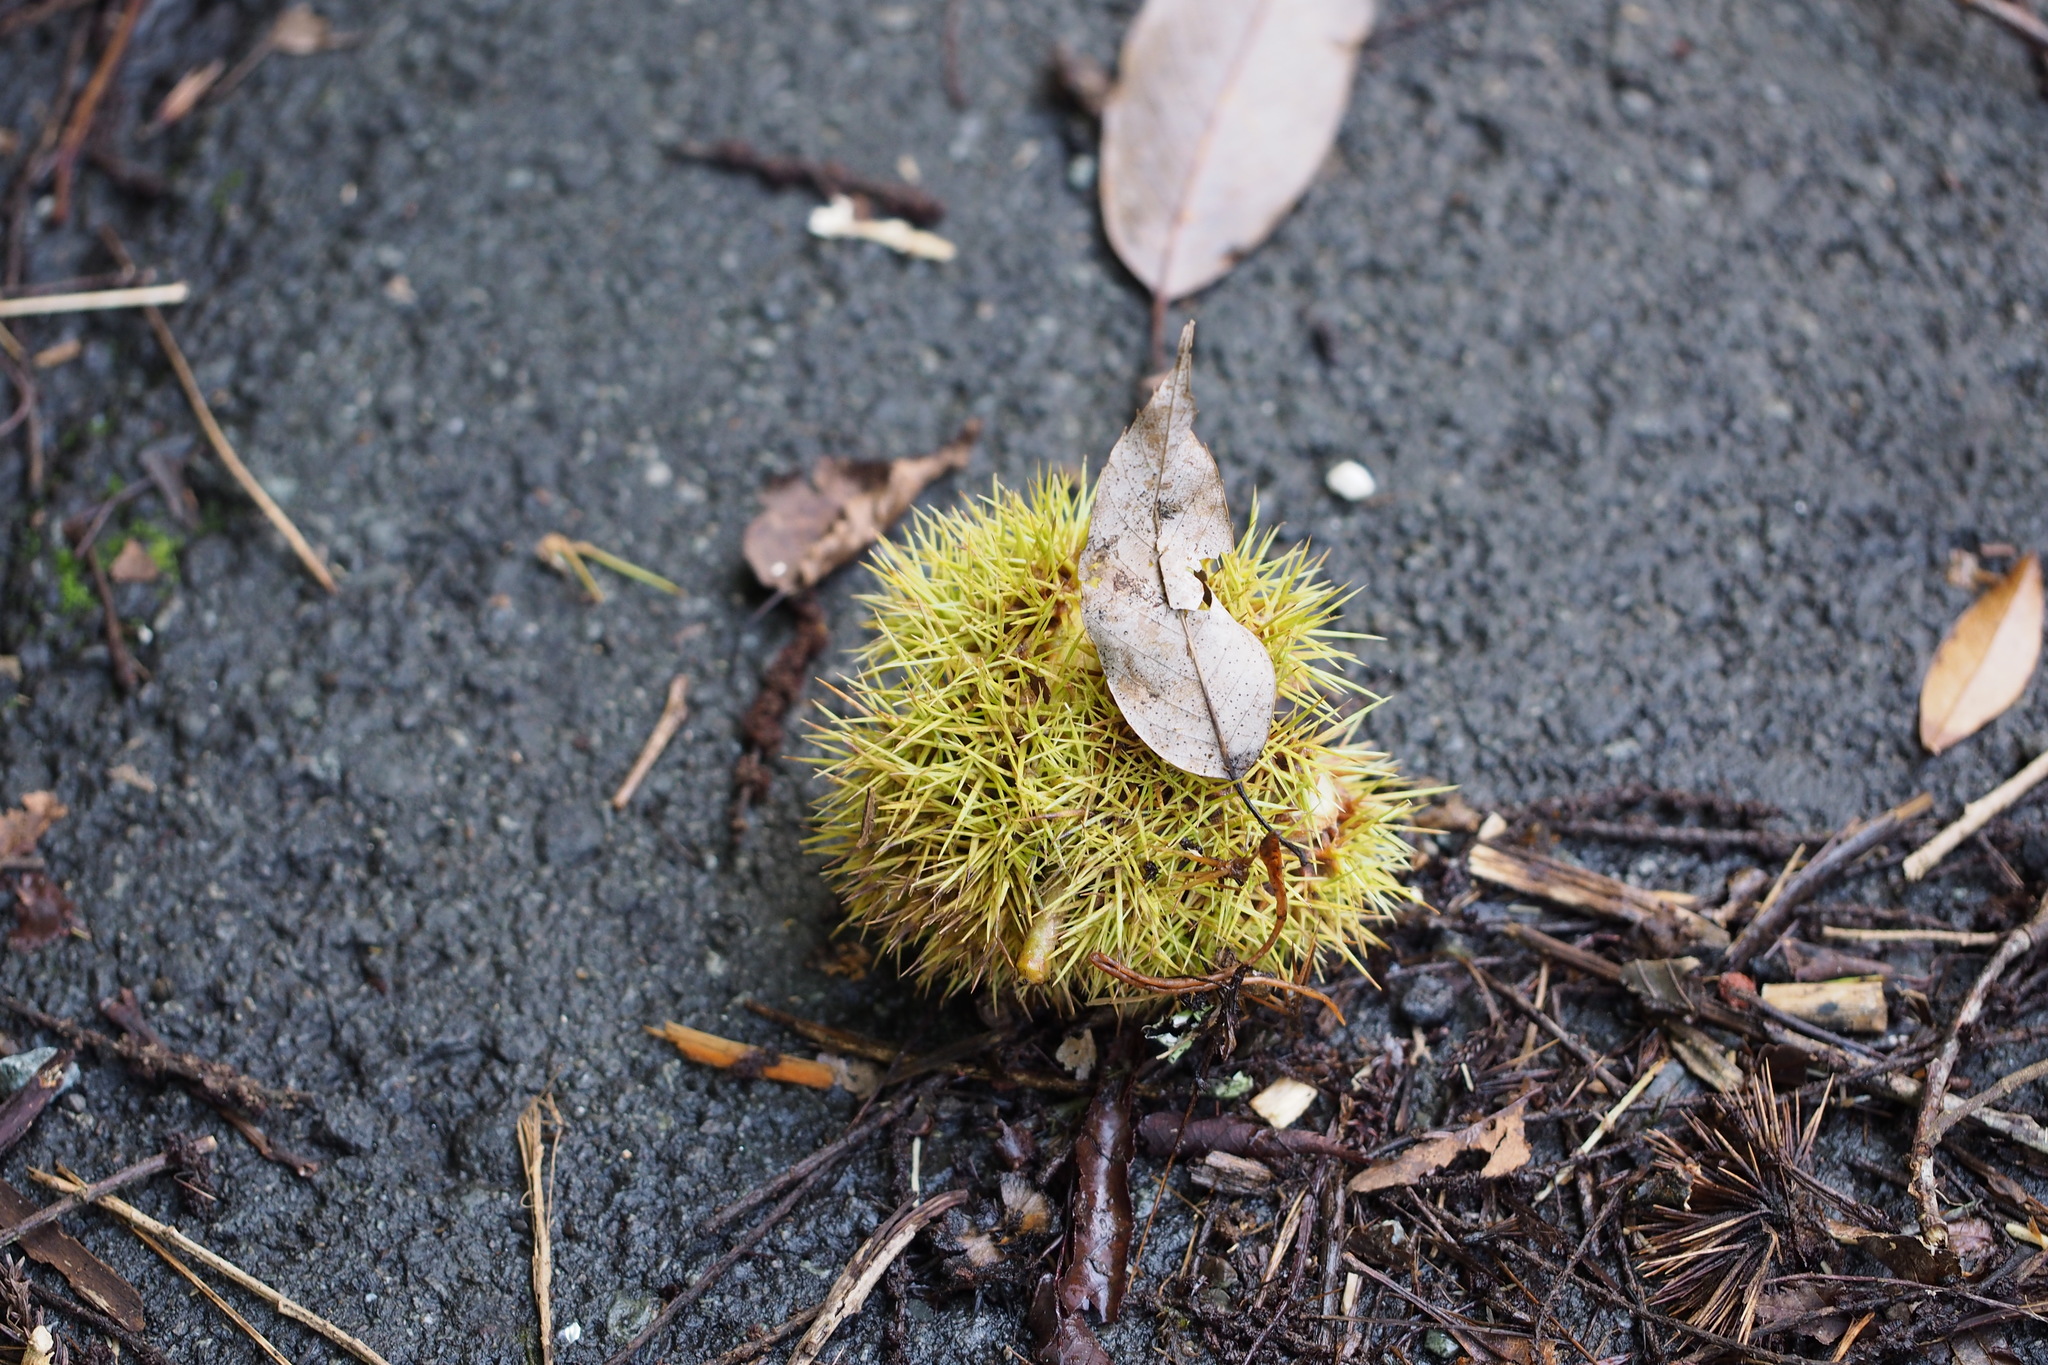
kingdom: Plantae
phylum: Tracheophyta
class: Magnoliopsida
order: Fagales
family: Fagaceae
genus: Castanea
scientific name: Castanea crenata
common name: Japanese chestnut
